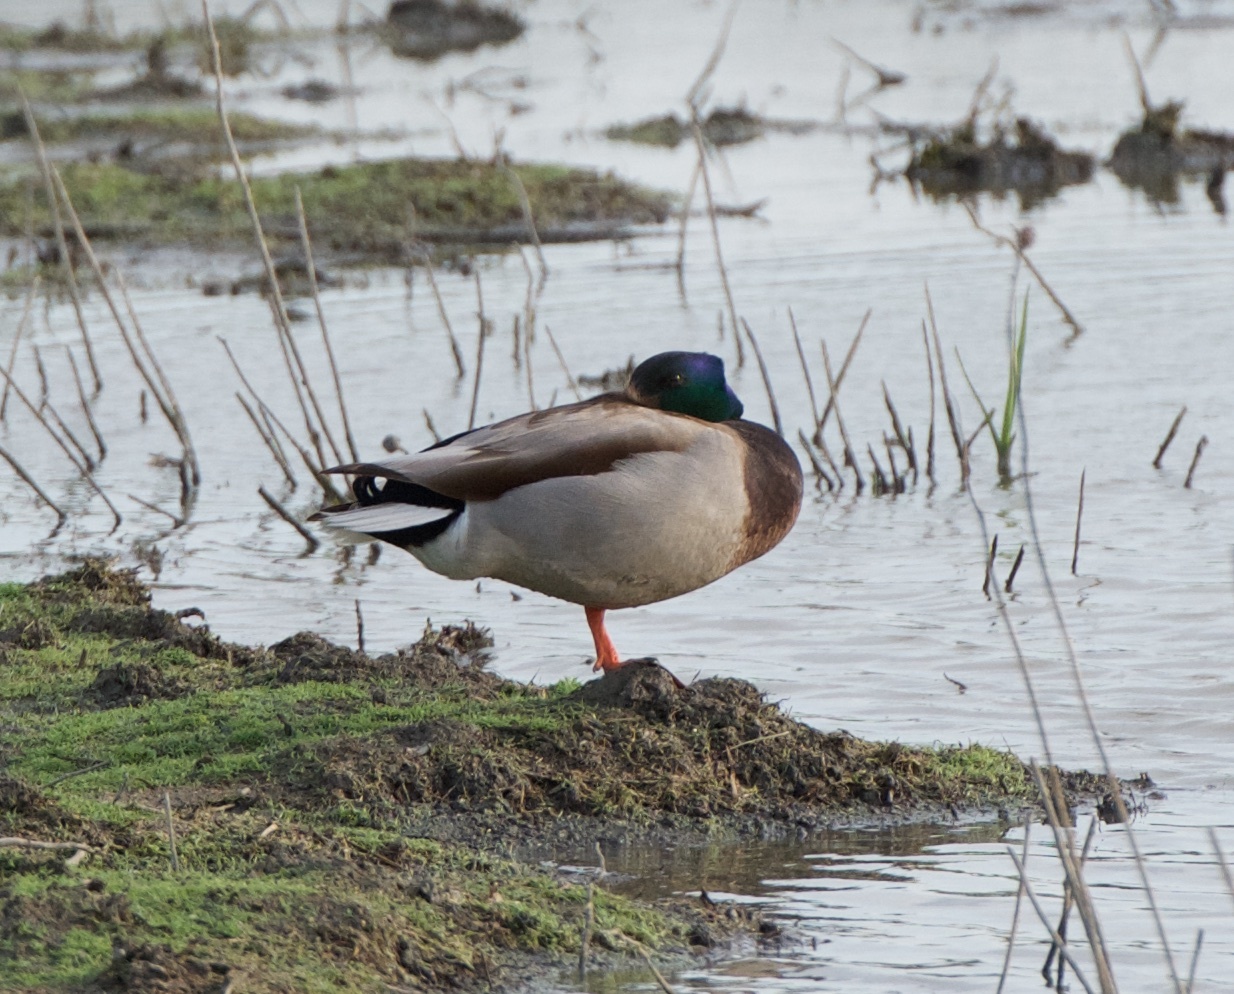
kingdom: Animalia
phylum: Chordata
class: Aves
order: Anseriformes
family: Anatidae
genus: Anas
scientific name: Anas platyrhynchos
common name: Mallard
